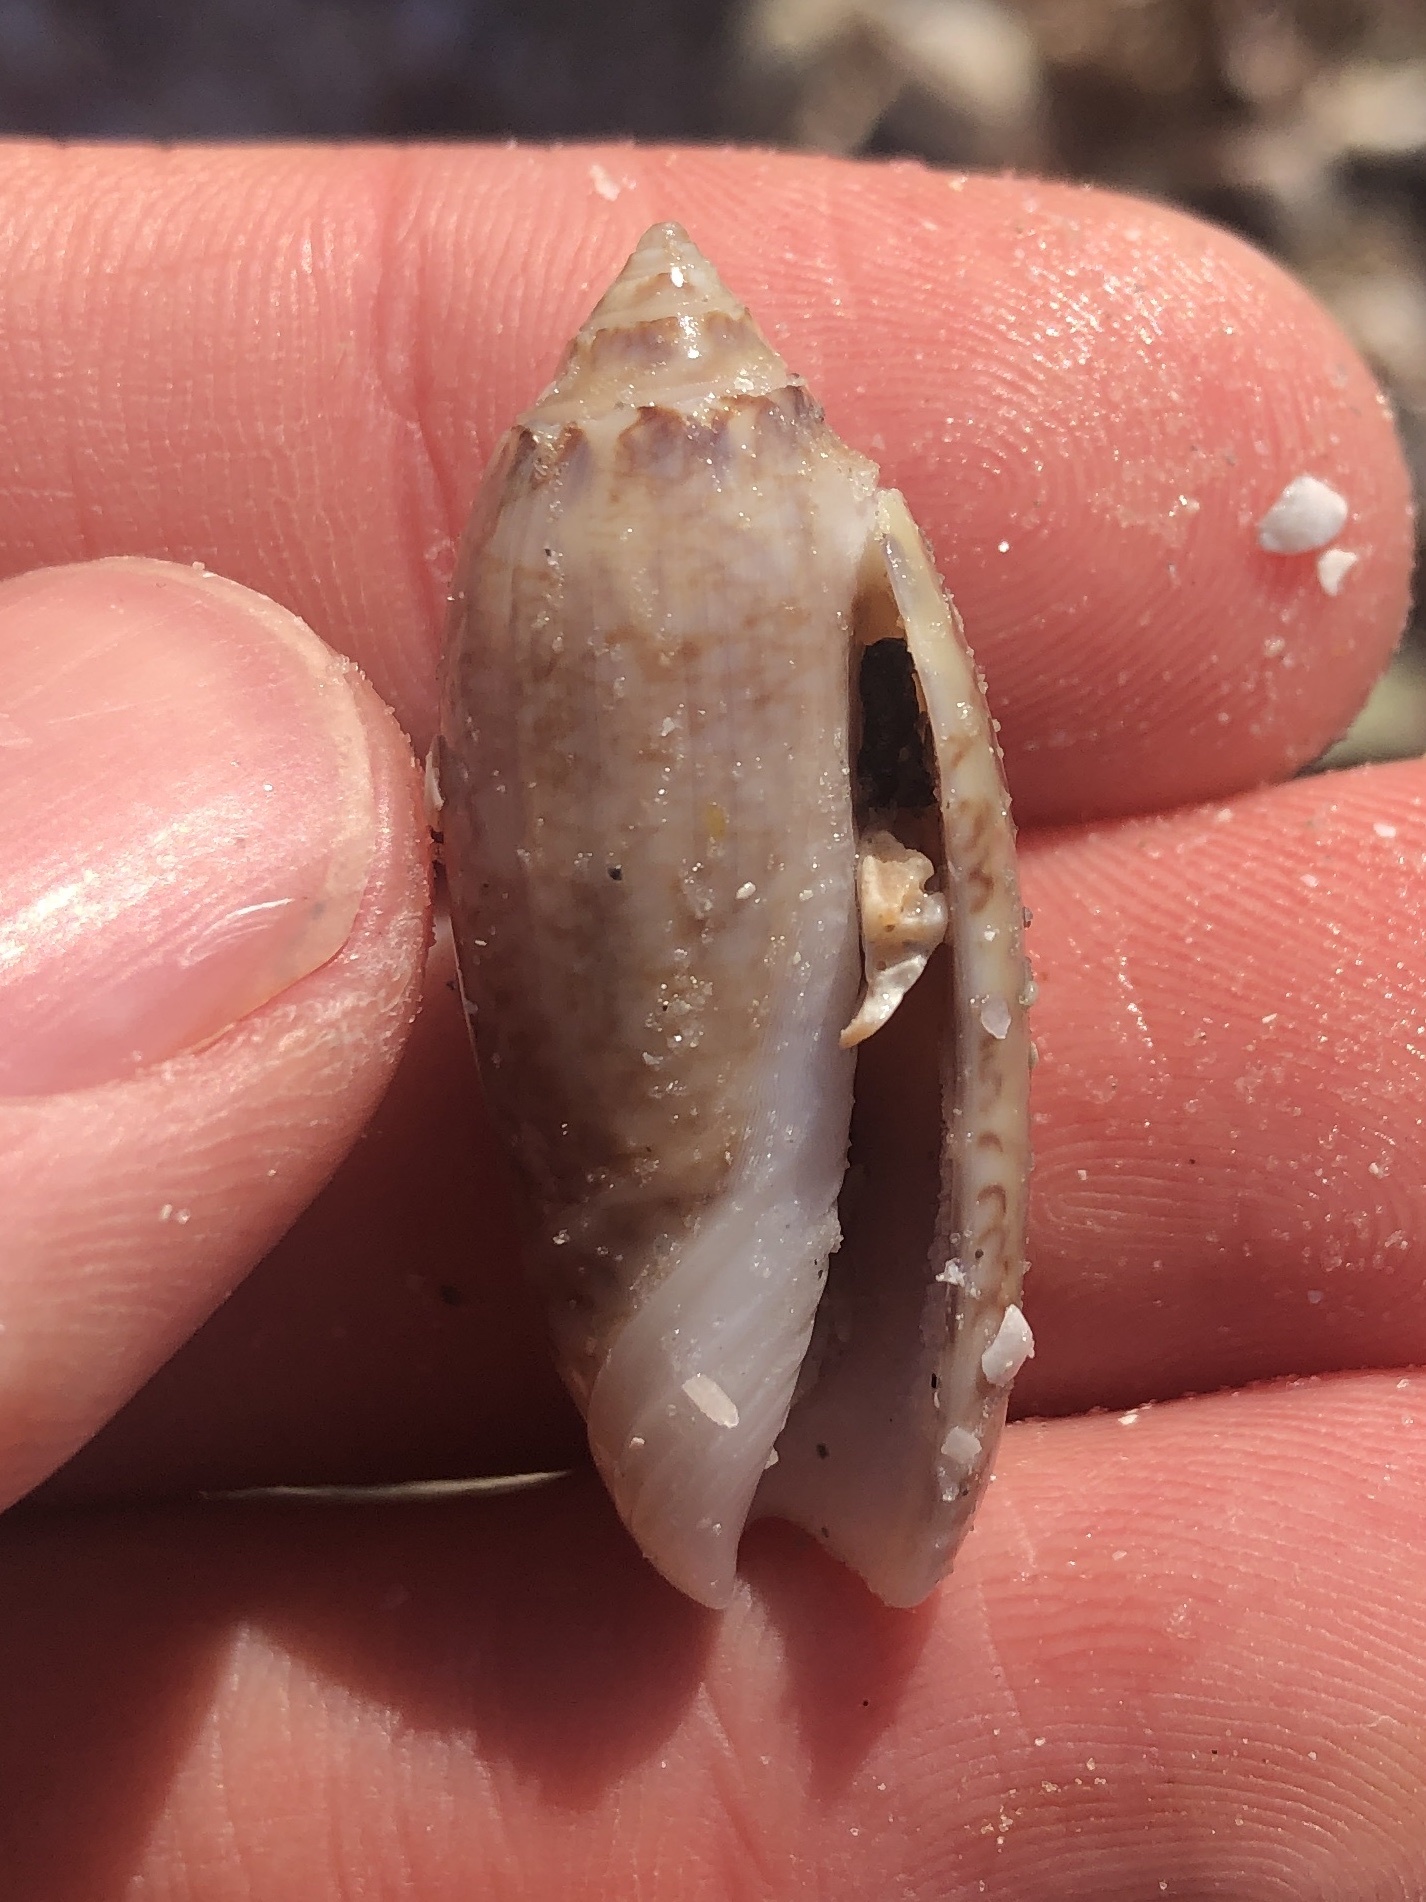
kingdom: Animalia
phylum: Mollusca
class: Gastropoda
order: Neogastropoda
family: Olividae
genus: Oliva
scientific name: Oliva sayana
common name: Lettered olive
